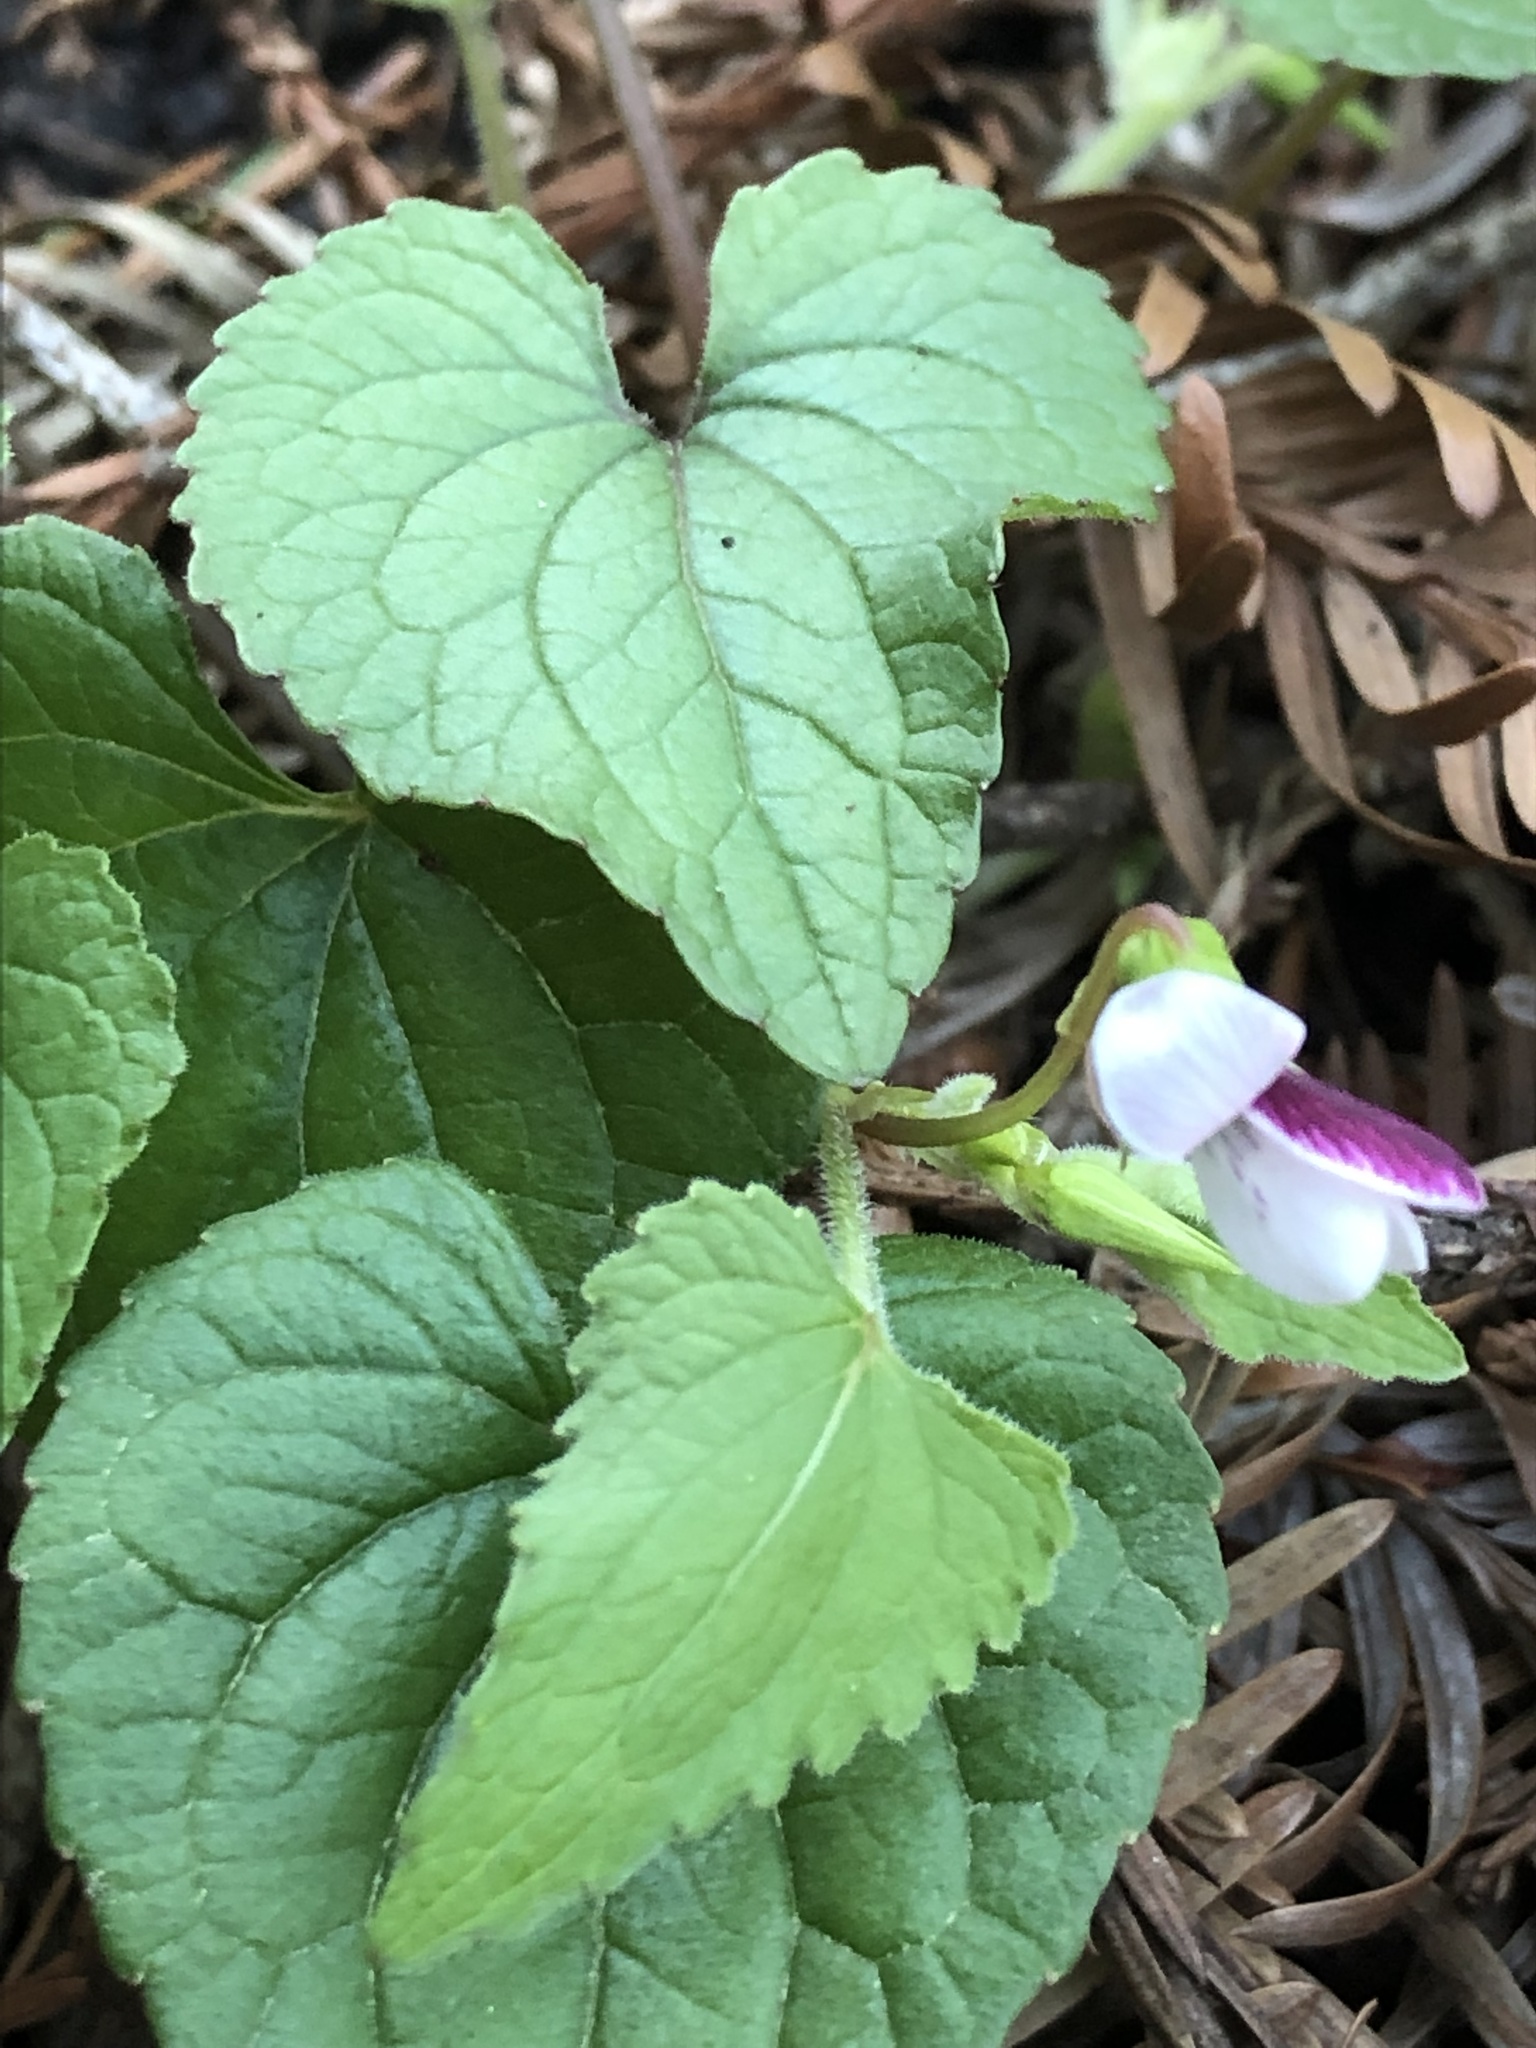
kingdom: Plantae
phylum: Tracheophyta
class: Magnoliopsida
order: Malpighiales
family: Violaceae
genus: Viola
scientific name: Viola ocellata
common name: Western heart's ease
